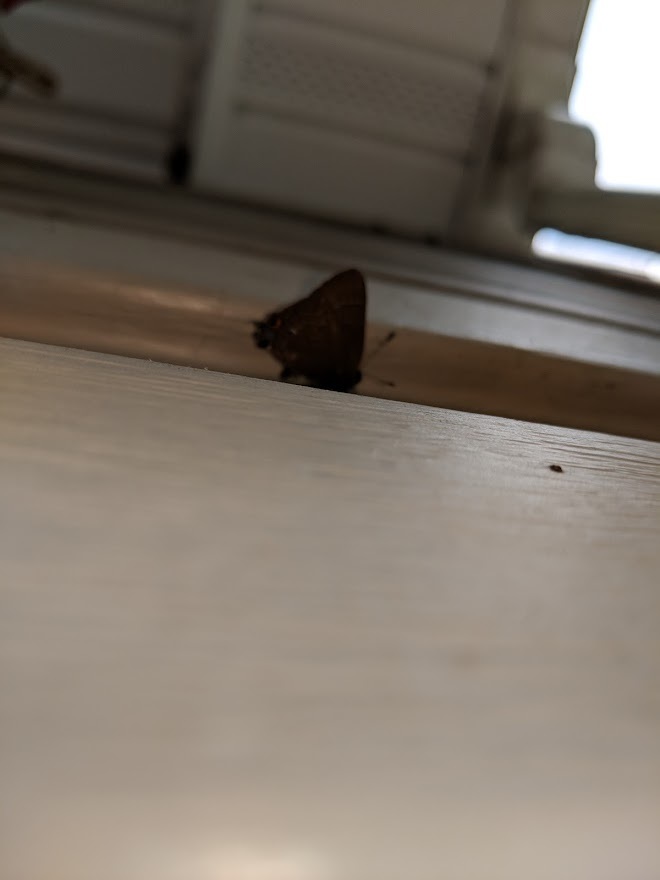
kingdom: Animalia
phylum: Arthropoda
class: Insecta
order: Lepidoptera
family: Lycaenidae
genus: Satyrium
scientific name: Satyrium calanus
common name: Banded hairstreak
